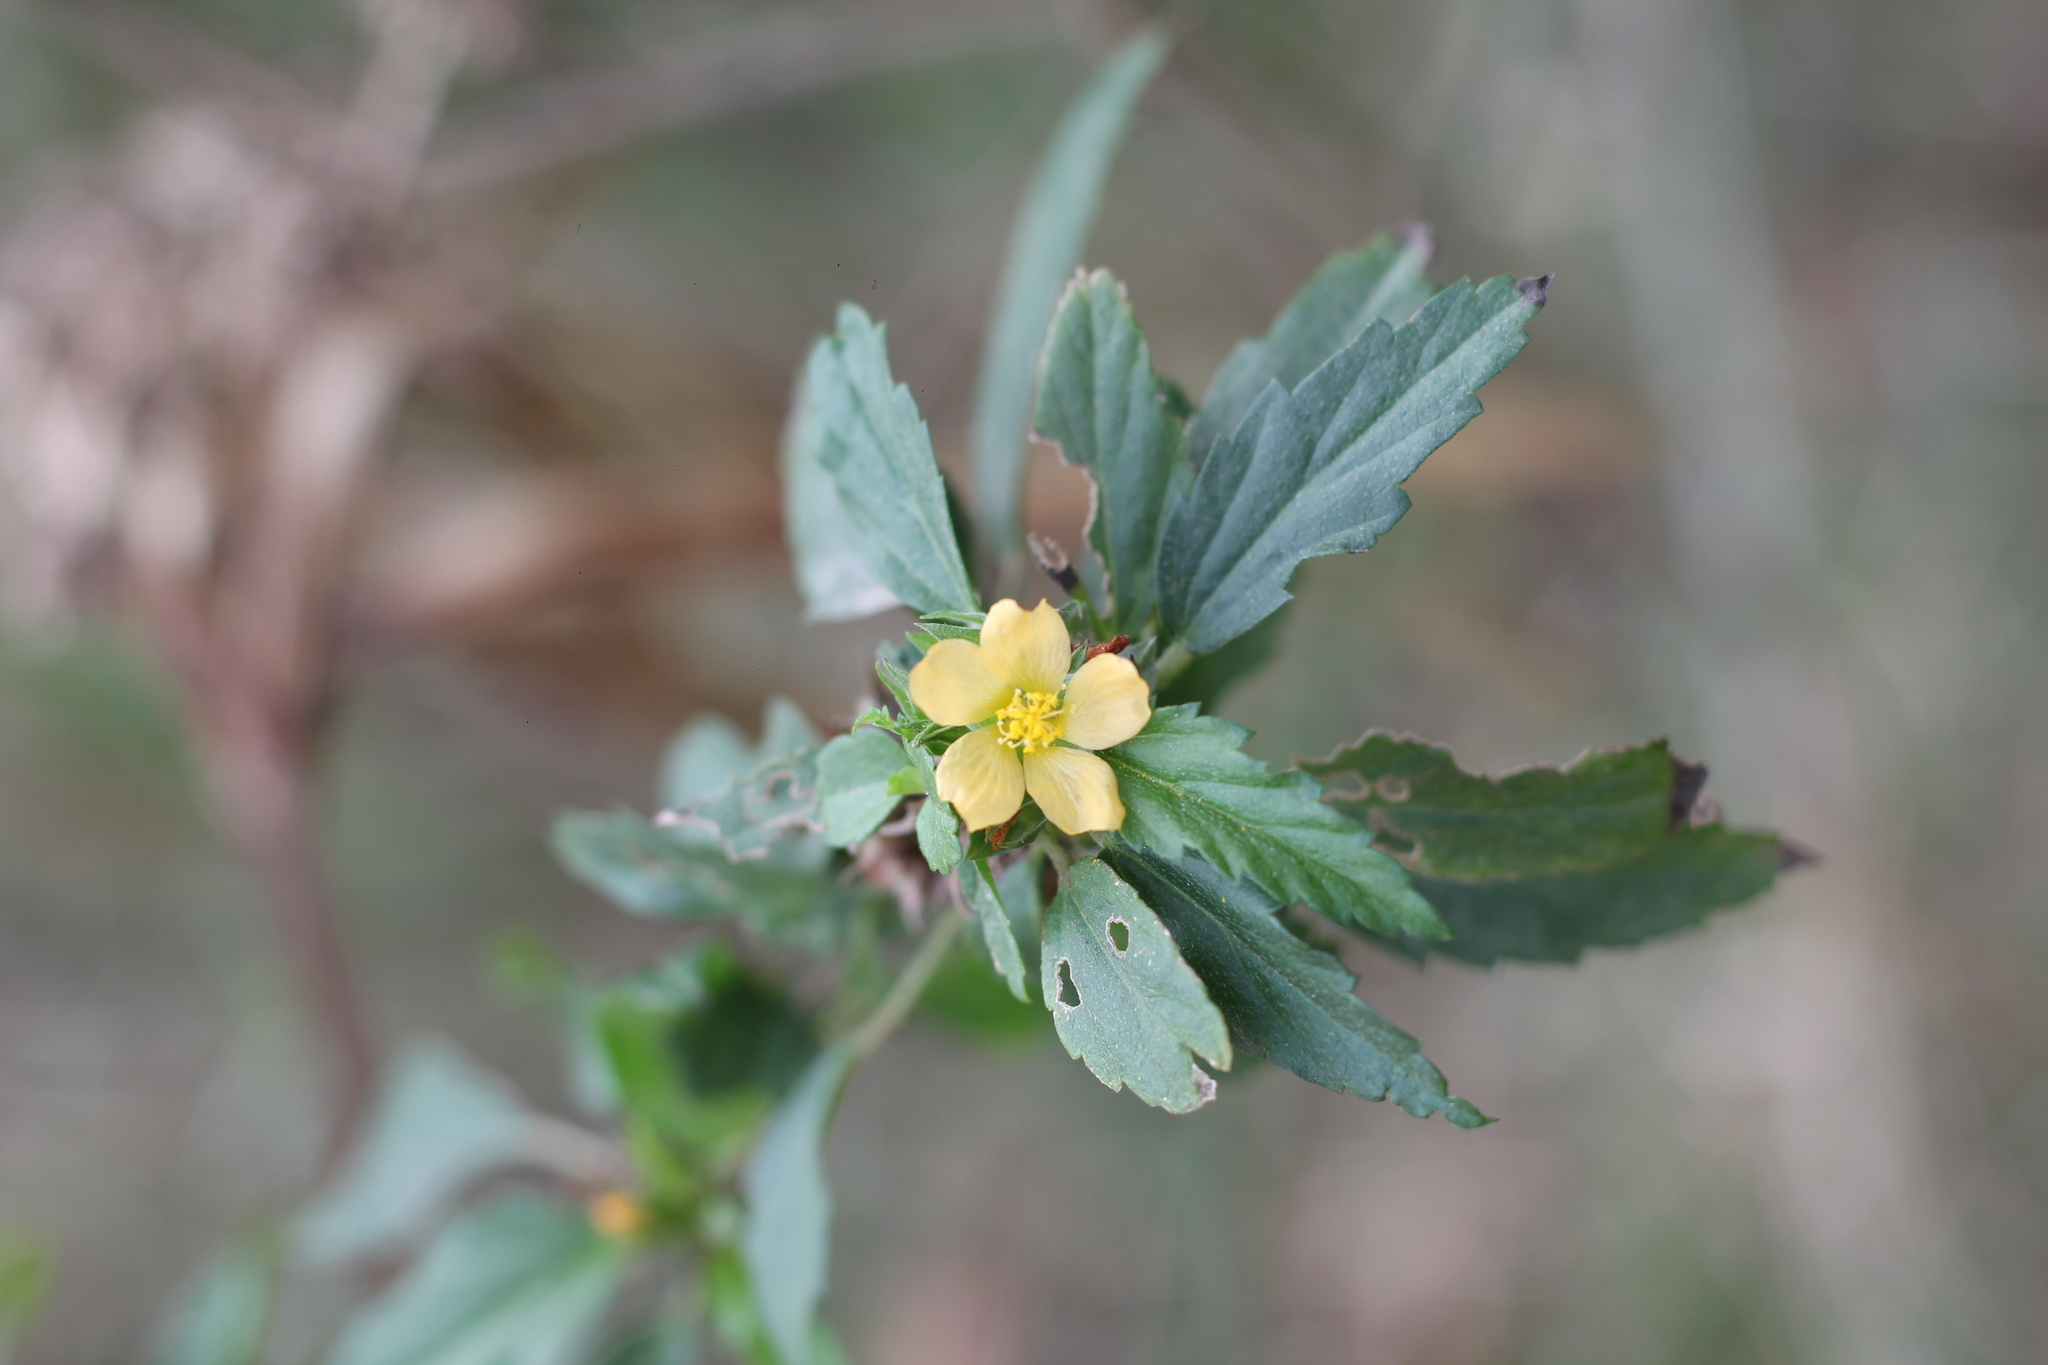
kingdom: Plantae
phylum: Tracheophyta
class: Magnoliopsida
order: Malvales
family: Malvaceae
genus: Malvastrum
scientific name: Malvastrum coromandelianum
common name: Threelobe false mallow
